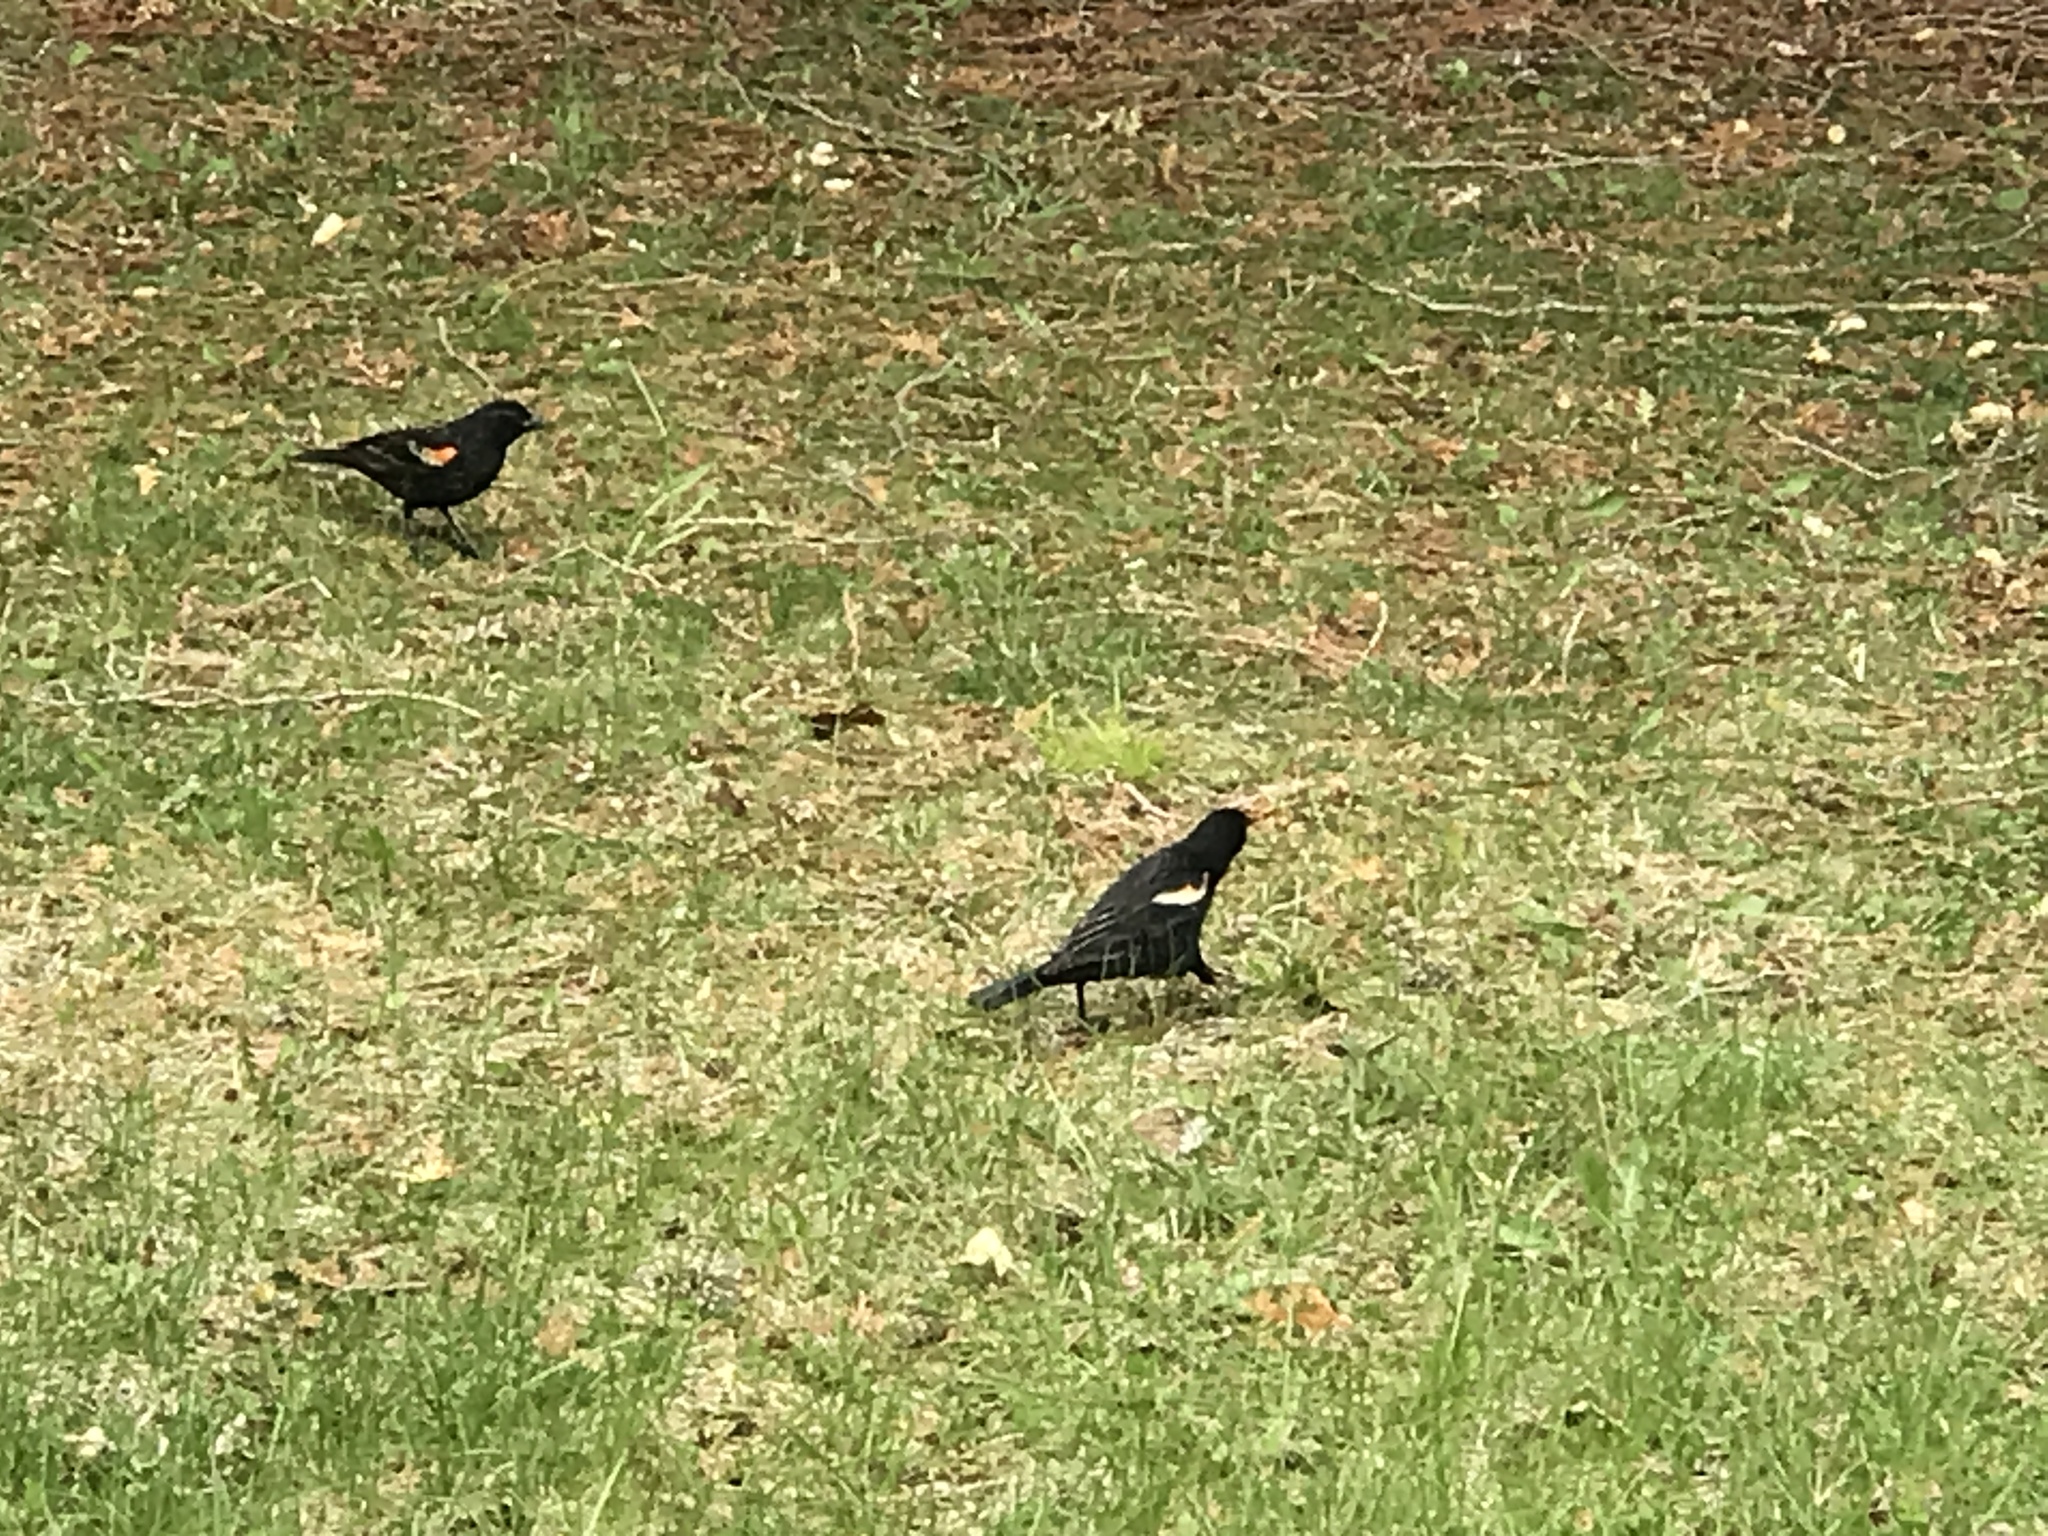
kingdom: Animalia
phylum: Chordata
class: Aves
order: Passeriformes
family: Icteridae
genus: Agelaius
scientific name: Agelaius phoeniceus
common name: Red-winged blackbird
